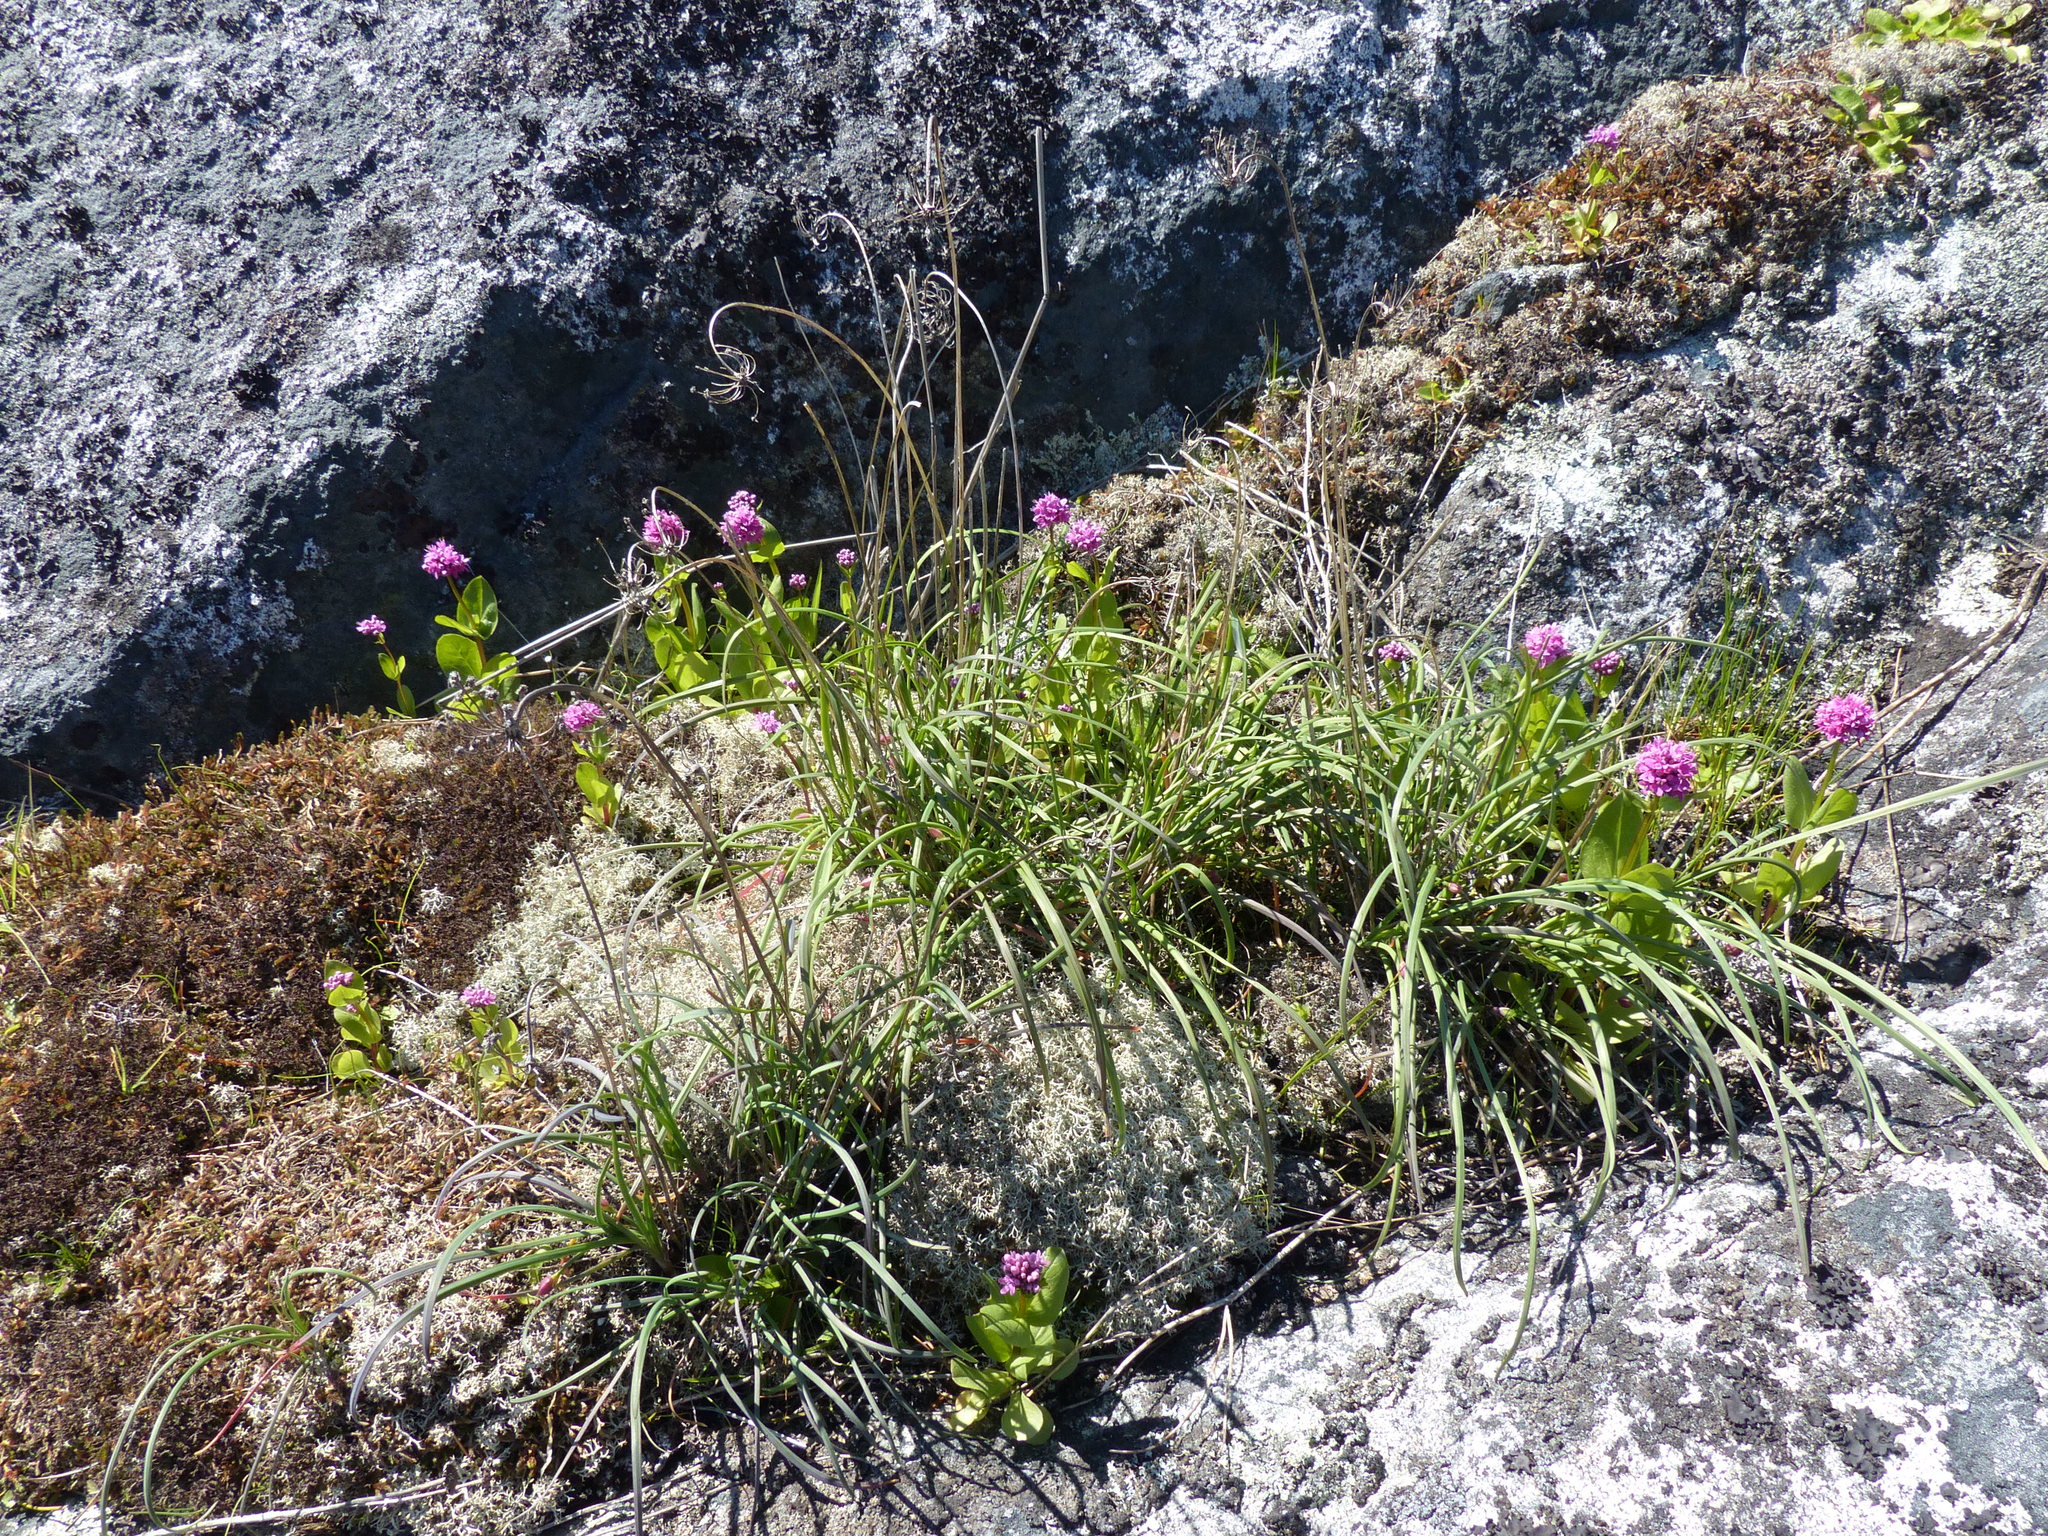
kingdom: Plantae
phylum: Tracheophyta
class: Liliopsida
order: Asparagales
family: Amaryllidaceae
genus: Allium
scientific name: Allium cernuum
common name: Nodding onion
